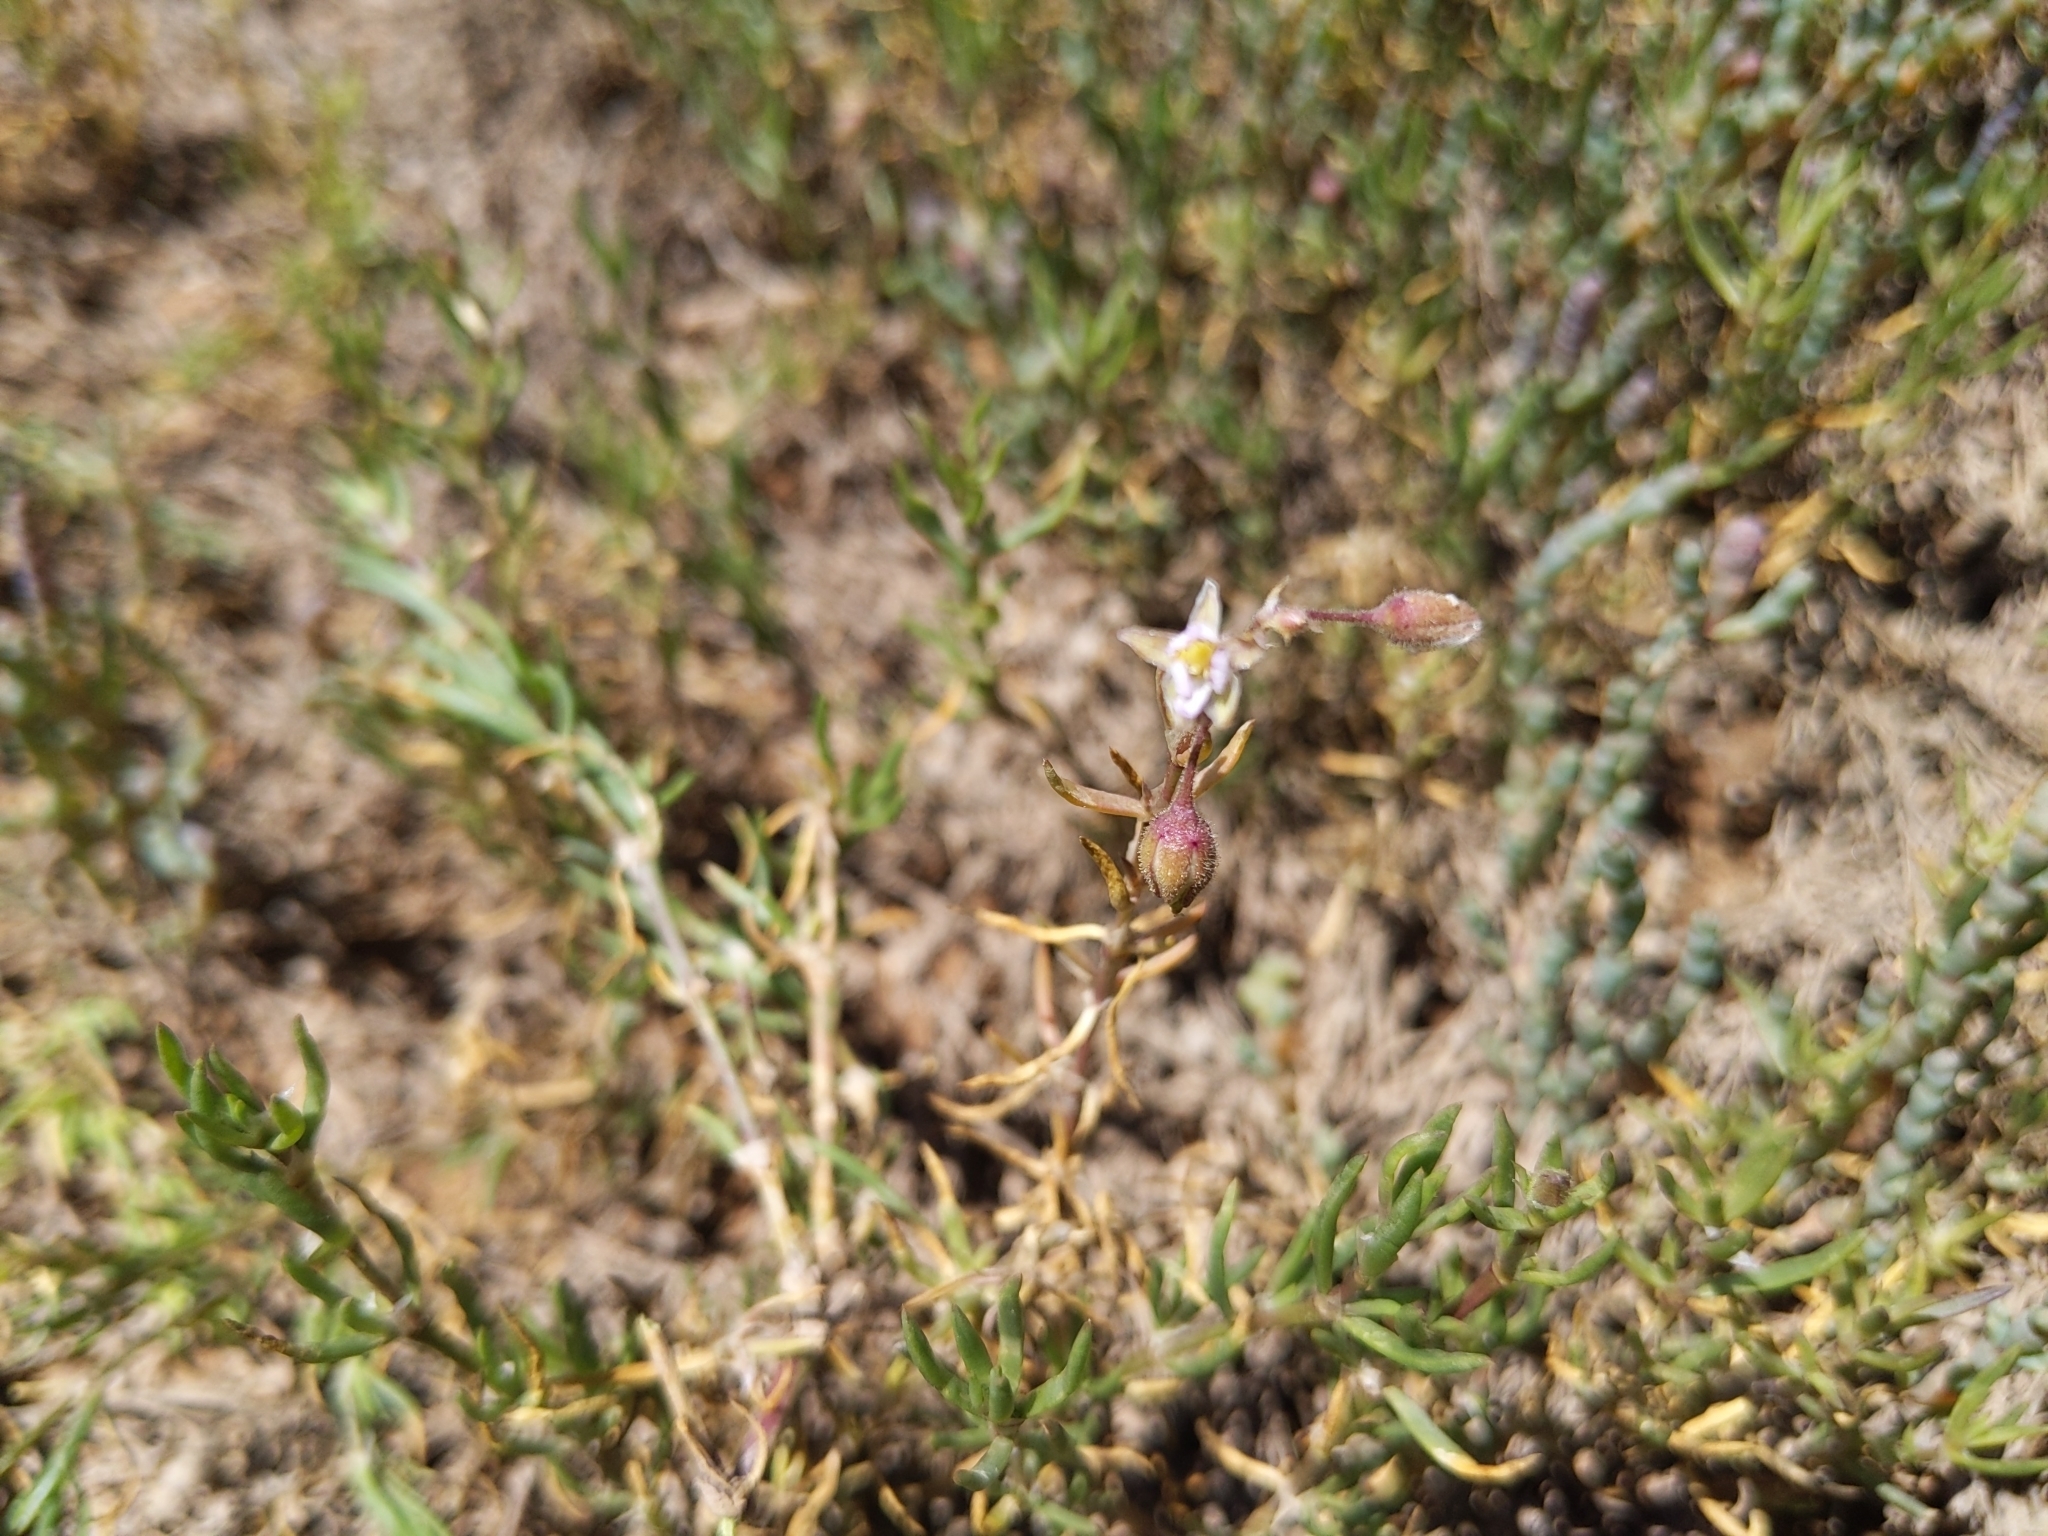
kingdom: Plantae
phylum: Tracheophyta
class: Magnoliopsida
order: Caryophyllales
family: Caryophyllaceae
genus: Spergularia
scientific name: Spergularia marina
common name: Lesser sea-spurrey
